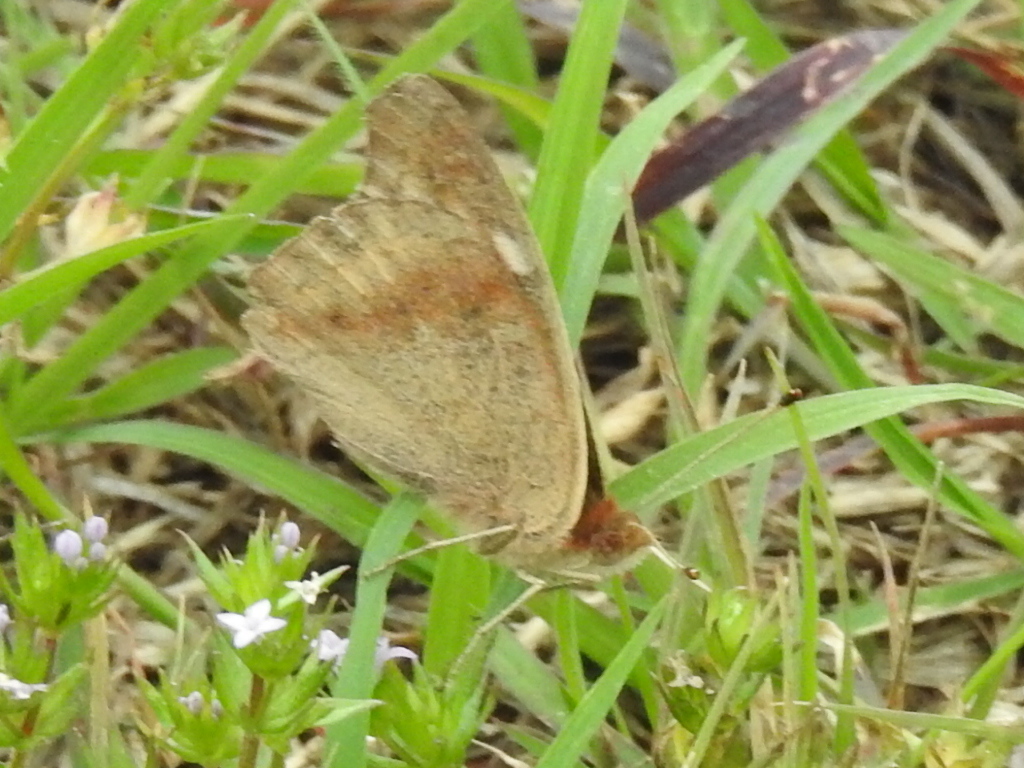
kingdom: Animalia
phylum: Arthropoda
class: Insecta
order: Lepidoptera
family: Nymphalidae
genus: Junonia
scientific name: Junonia coenia
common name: Common buckeye
